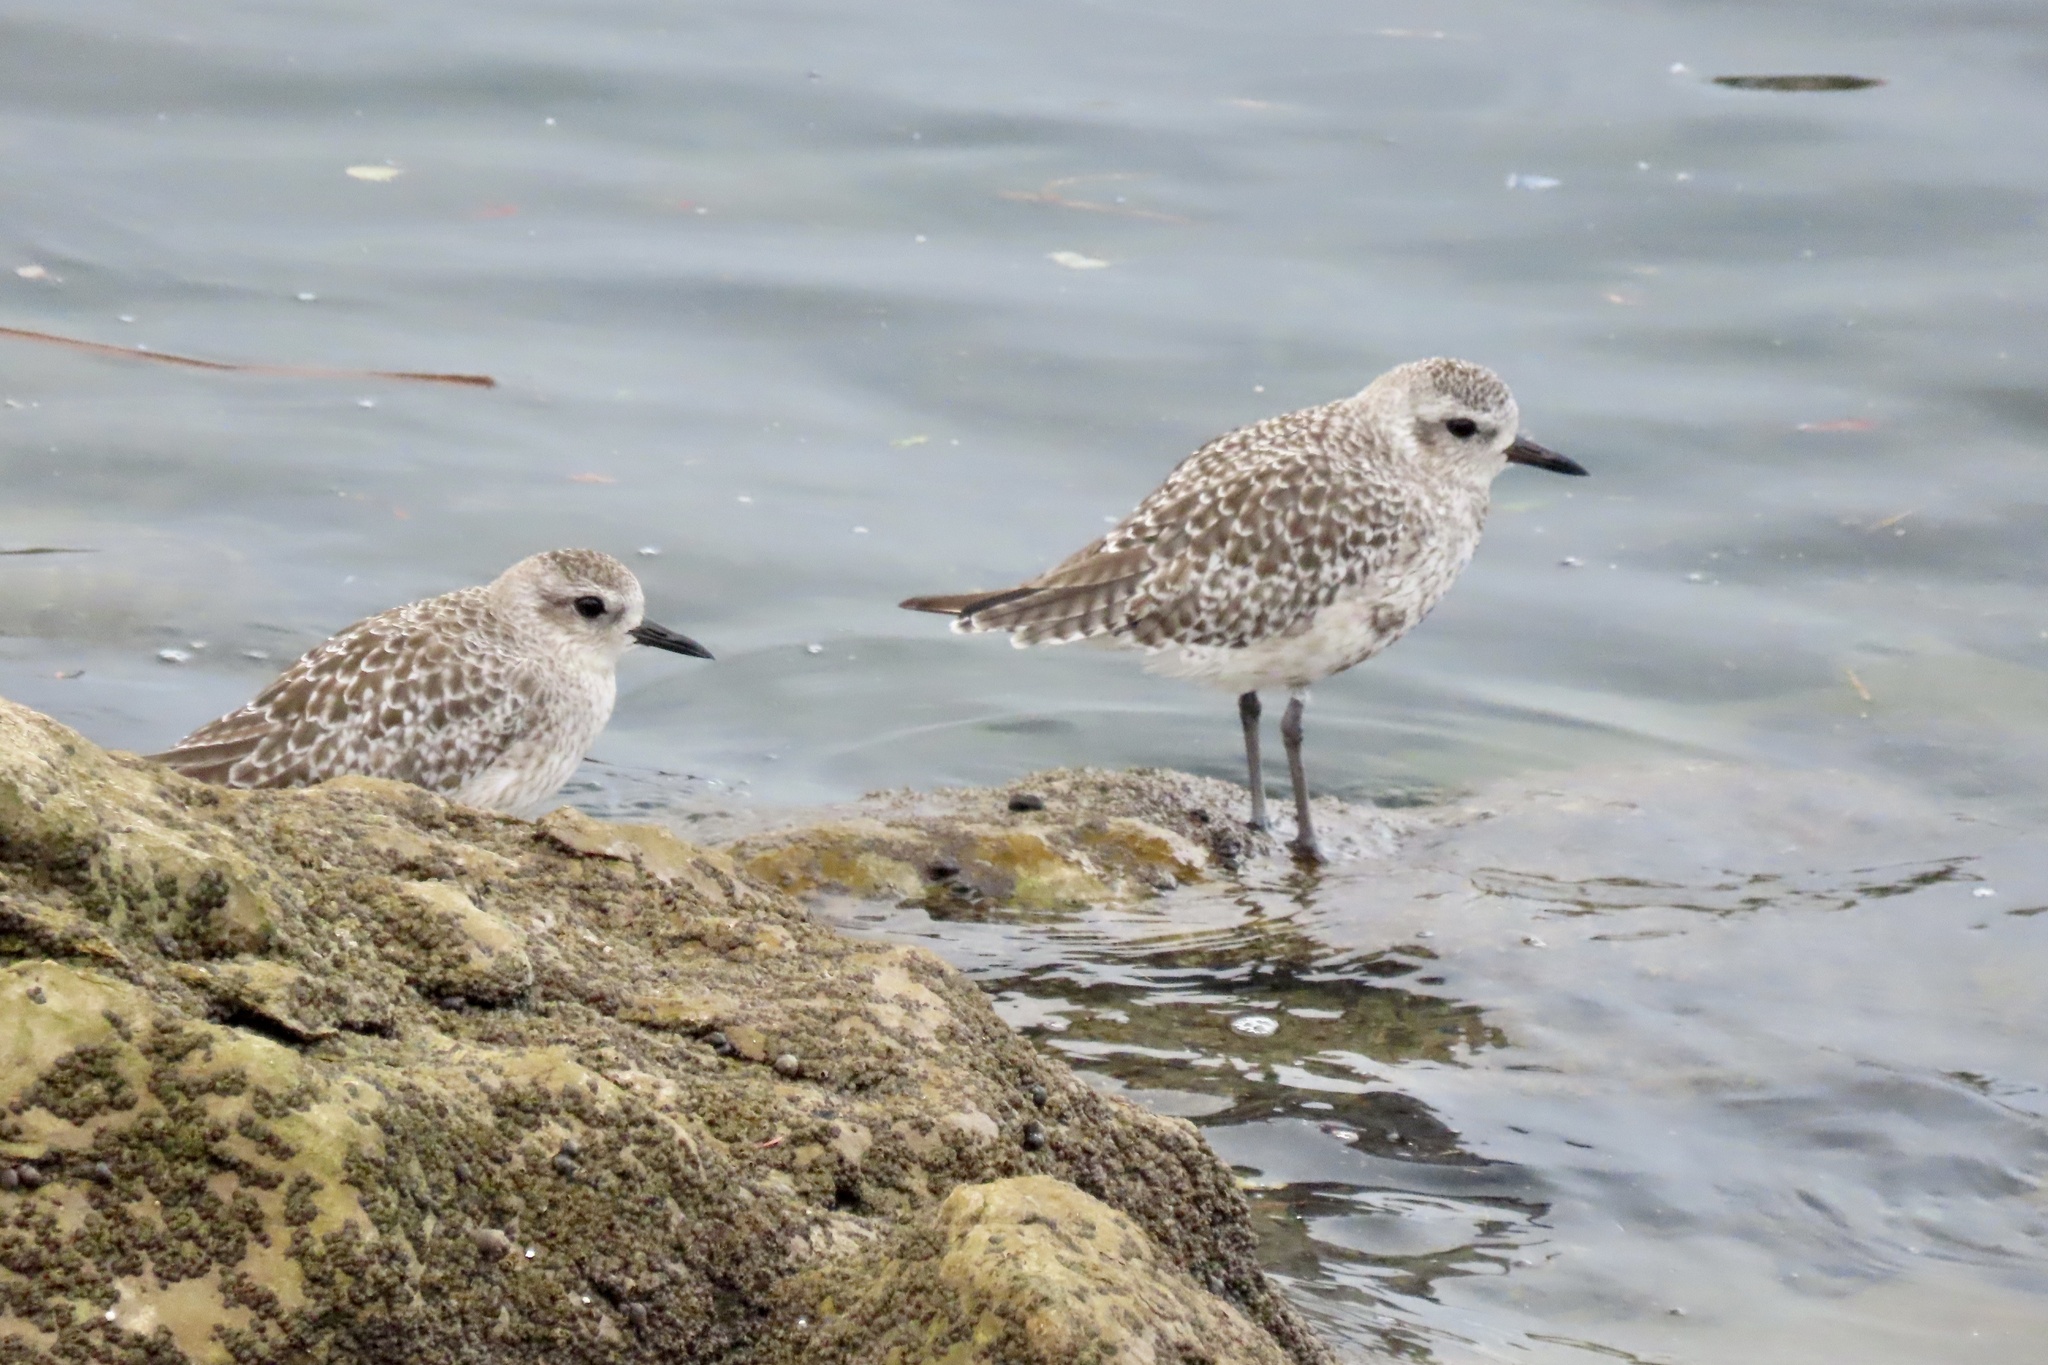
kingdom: Animalia
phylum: Chordata
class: Aves
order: Charadriiformes
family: Charadriidae
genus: Pluvialis
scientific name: Pluvialis squatarola
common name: Grey plover
